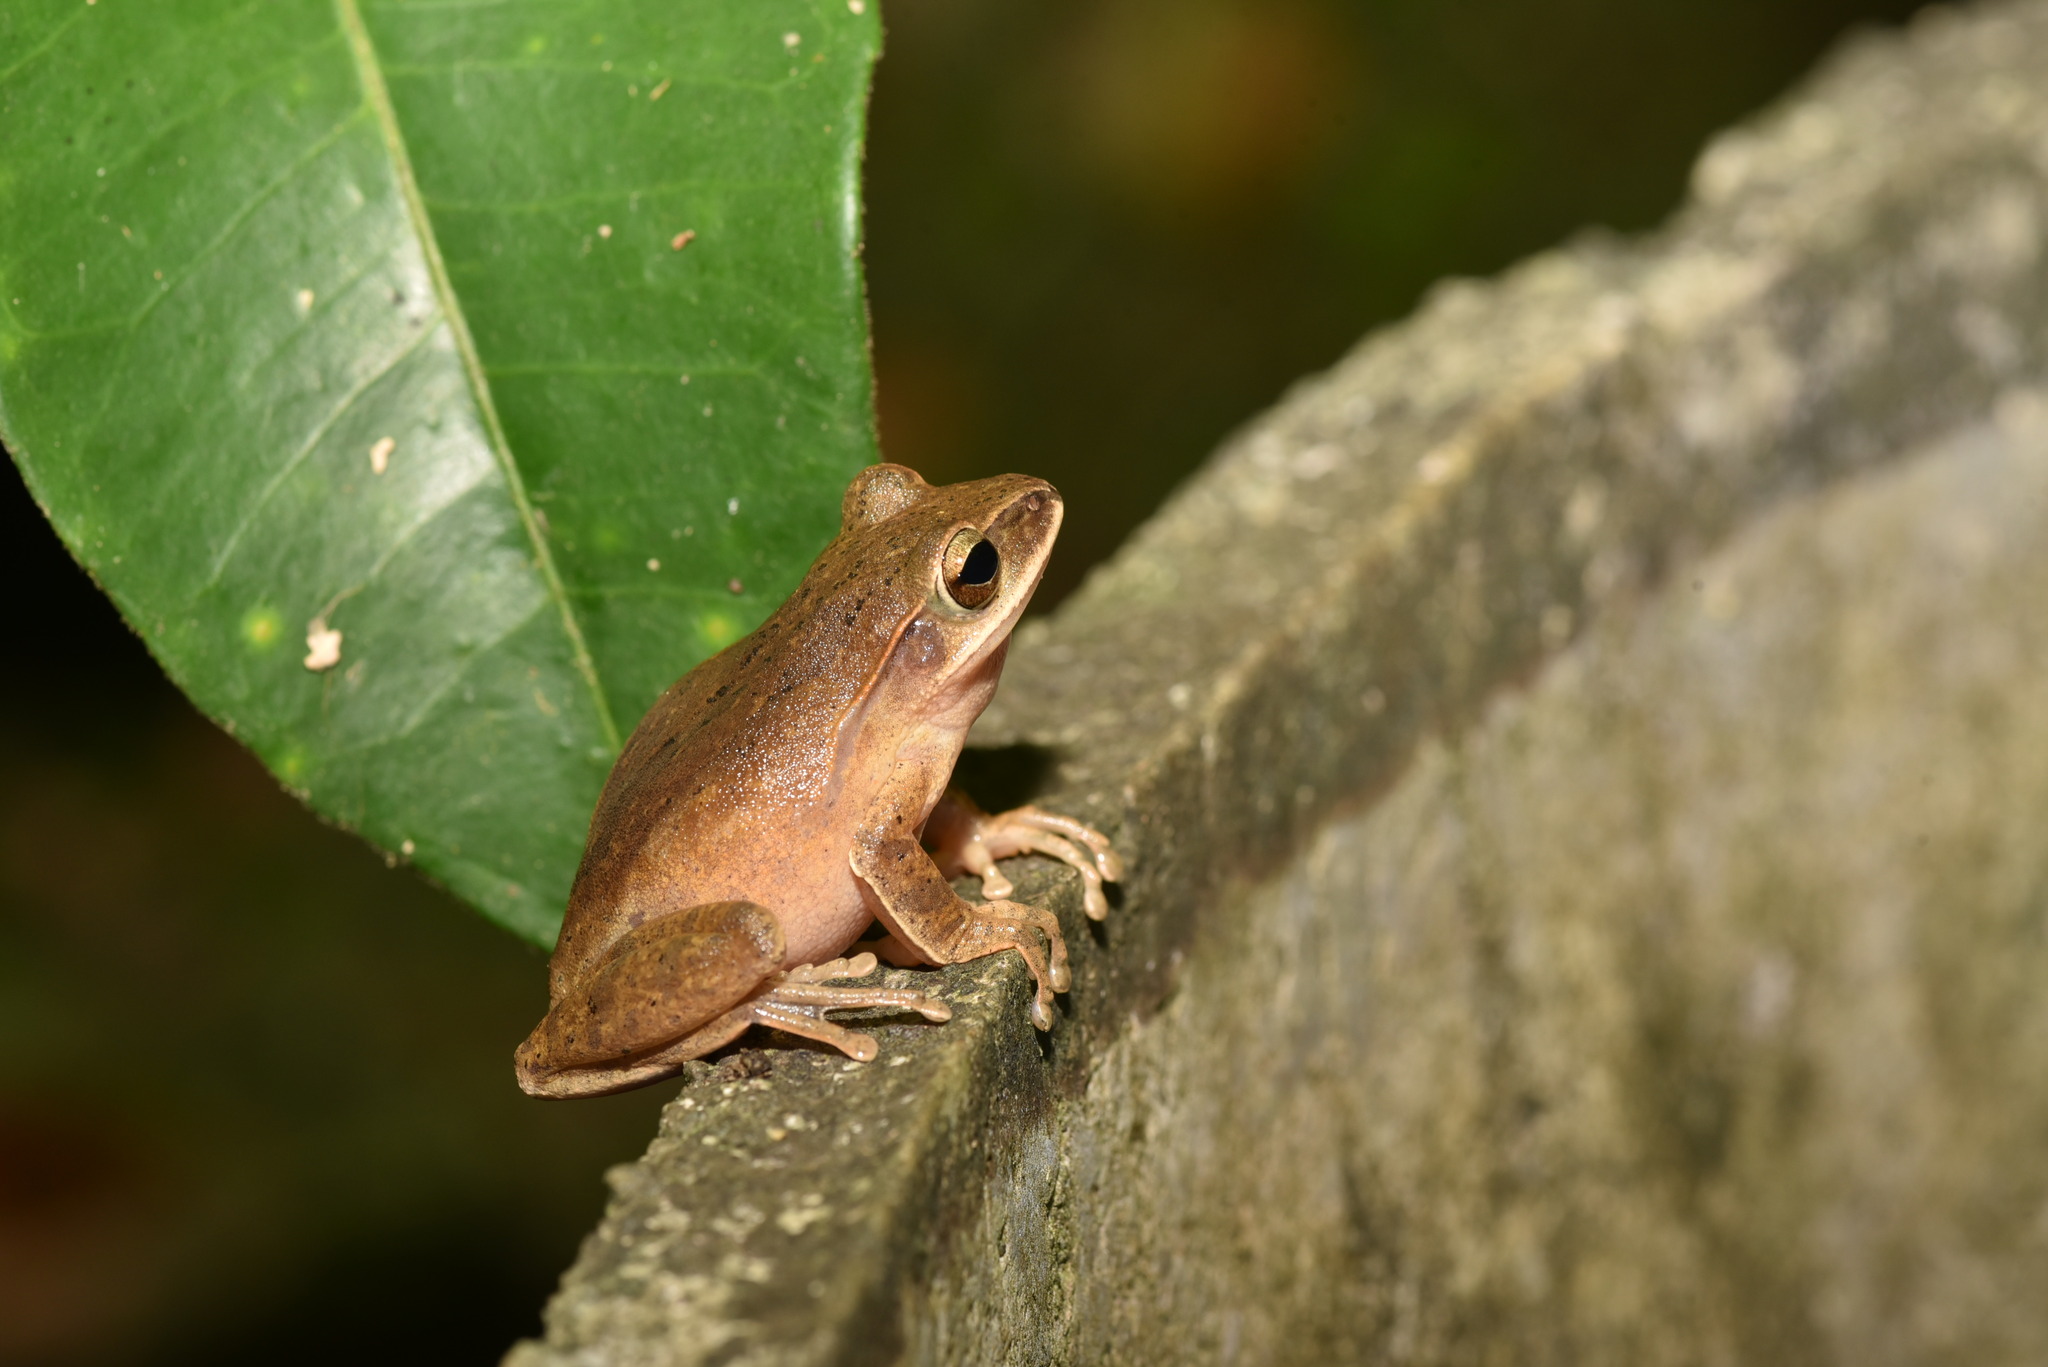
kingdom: Animalia
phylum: Chordata
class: Amphibia
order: Anura
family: Rhacophoridae
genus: Polypedates
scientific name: Polypedates braueri
